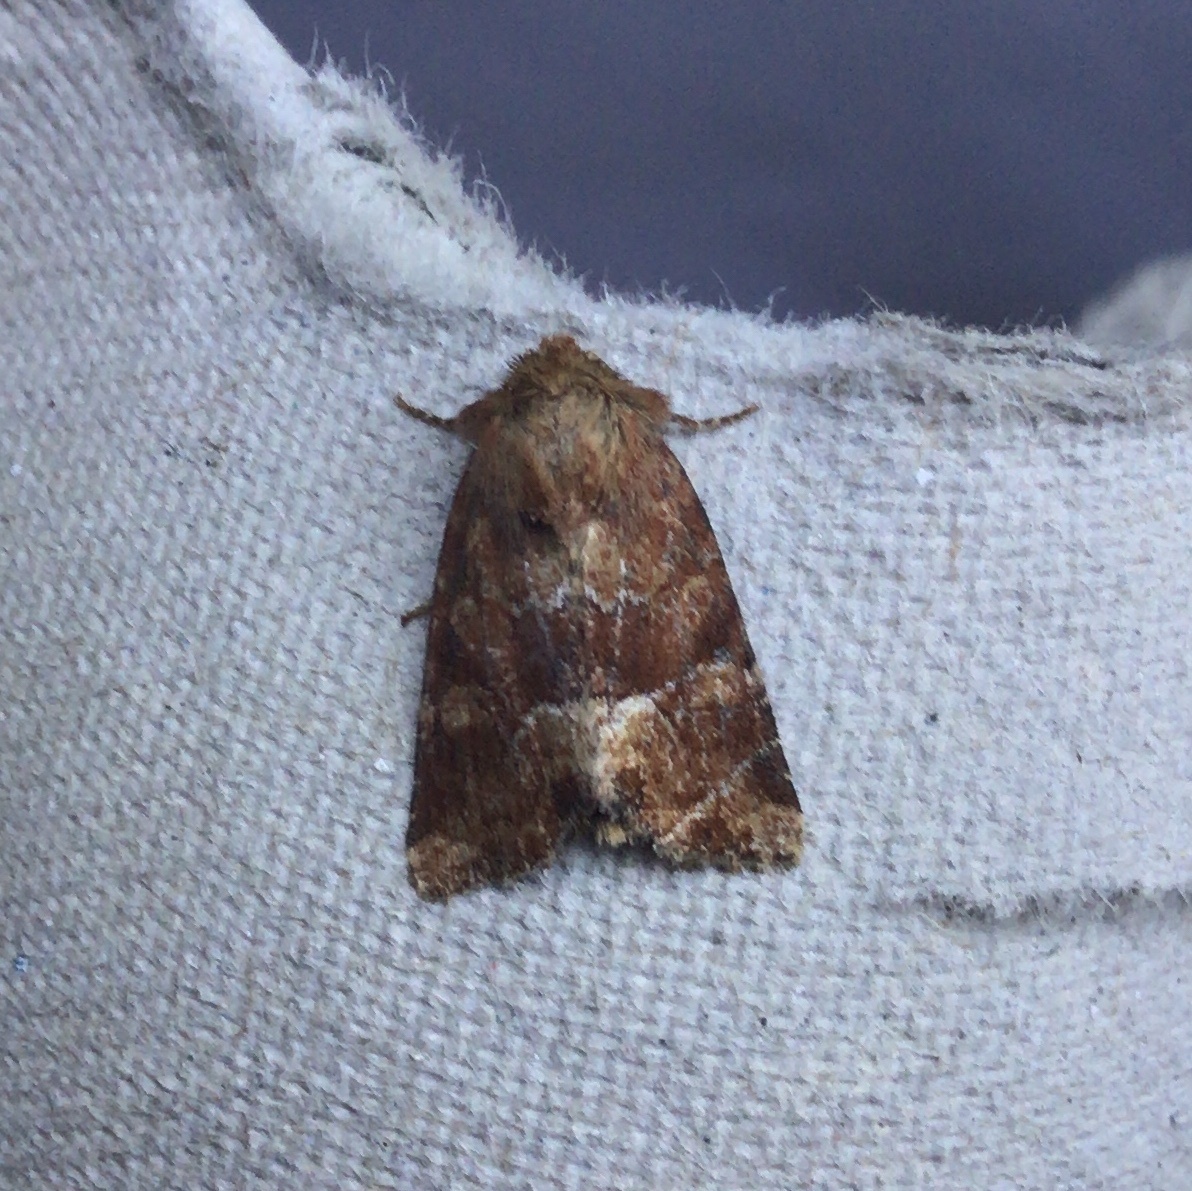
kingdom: Animalia
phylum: Arthropoda
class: Insecta
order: Lepidoptera
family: Noctuidae
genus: Oligia
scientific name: Oligia fasciuncula
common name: Middle-barred minor
